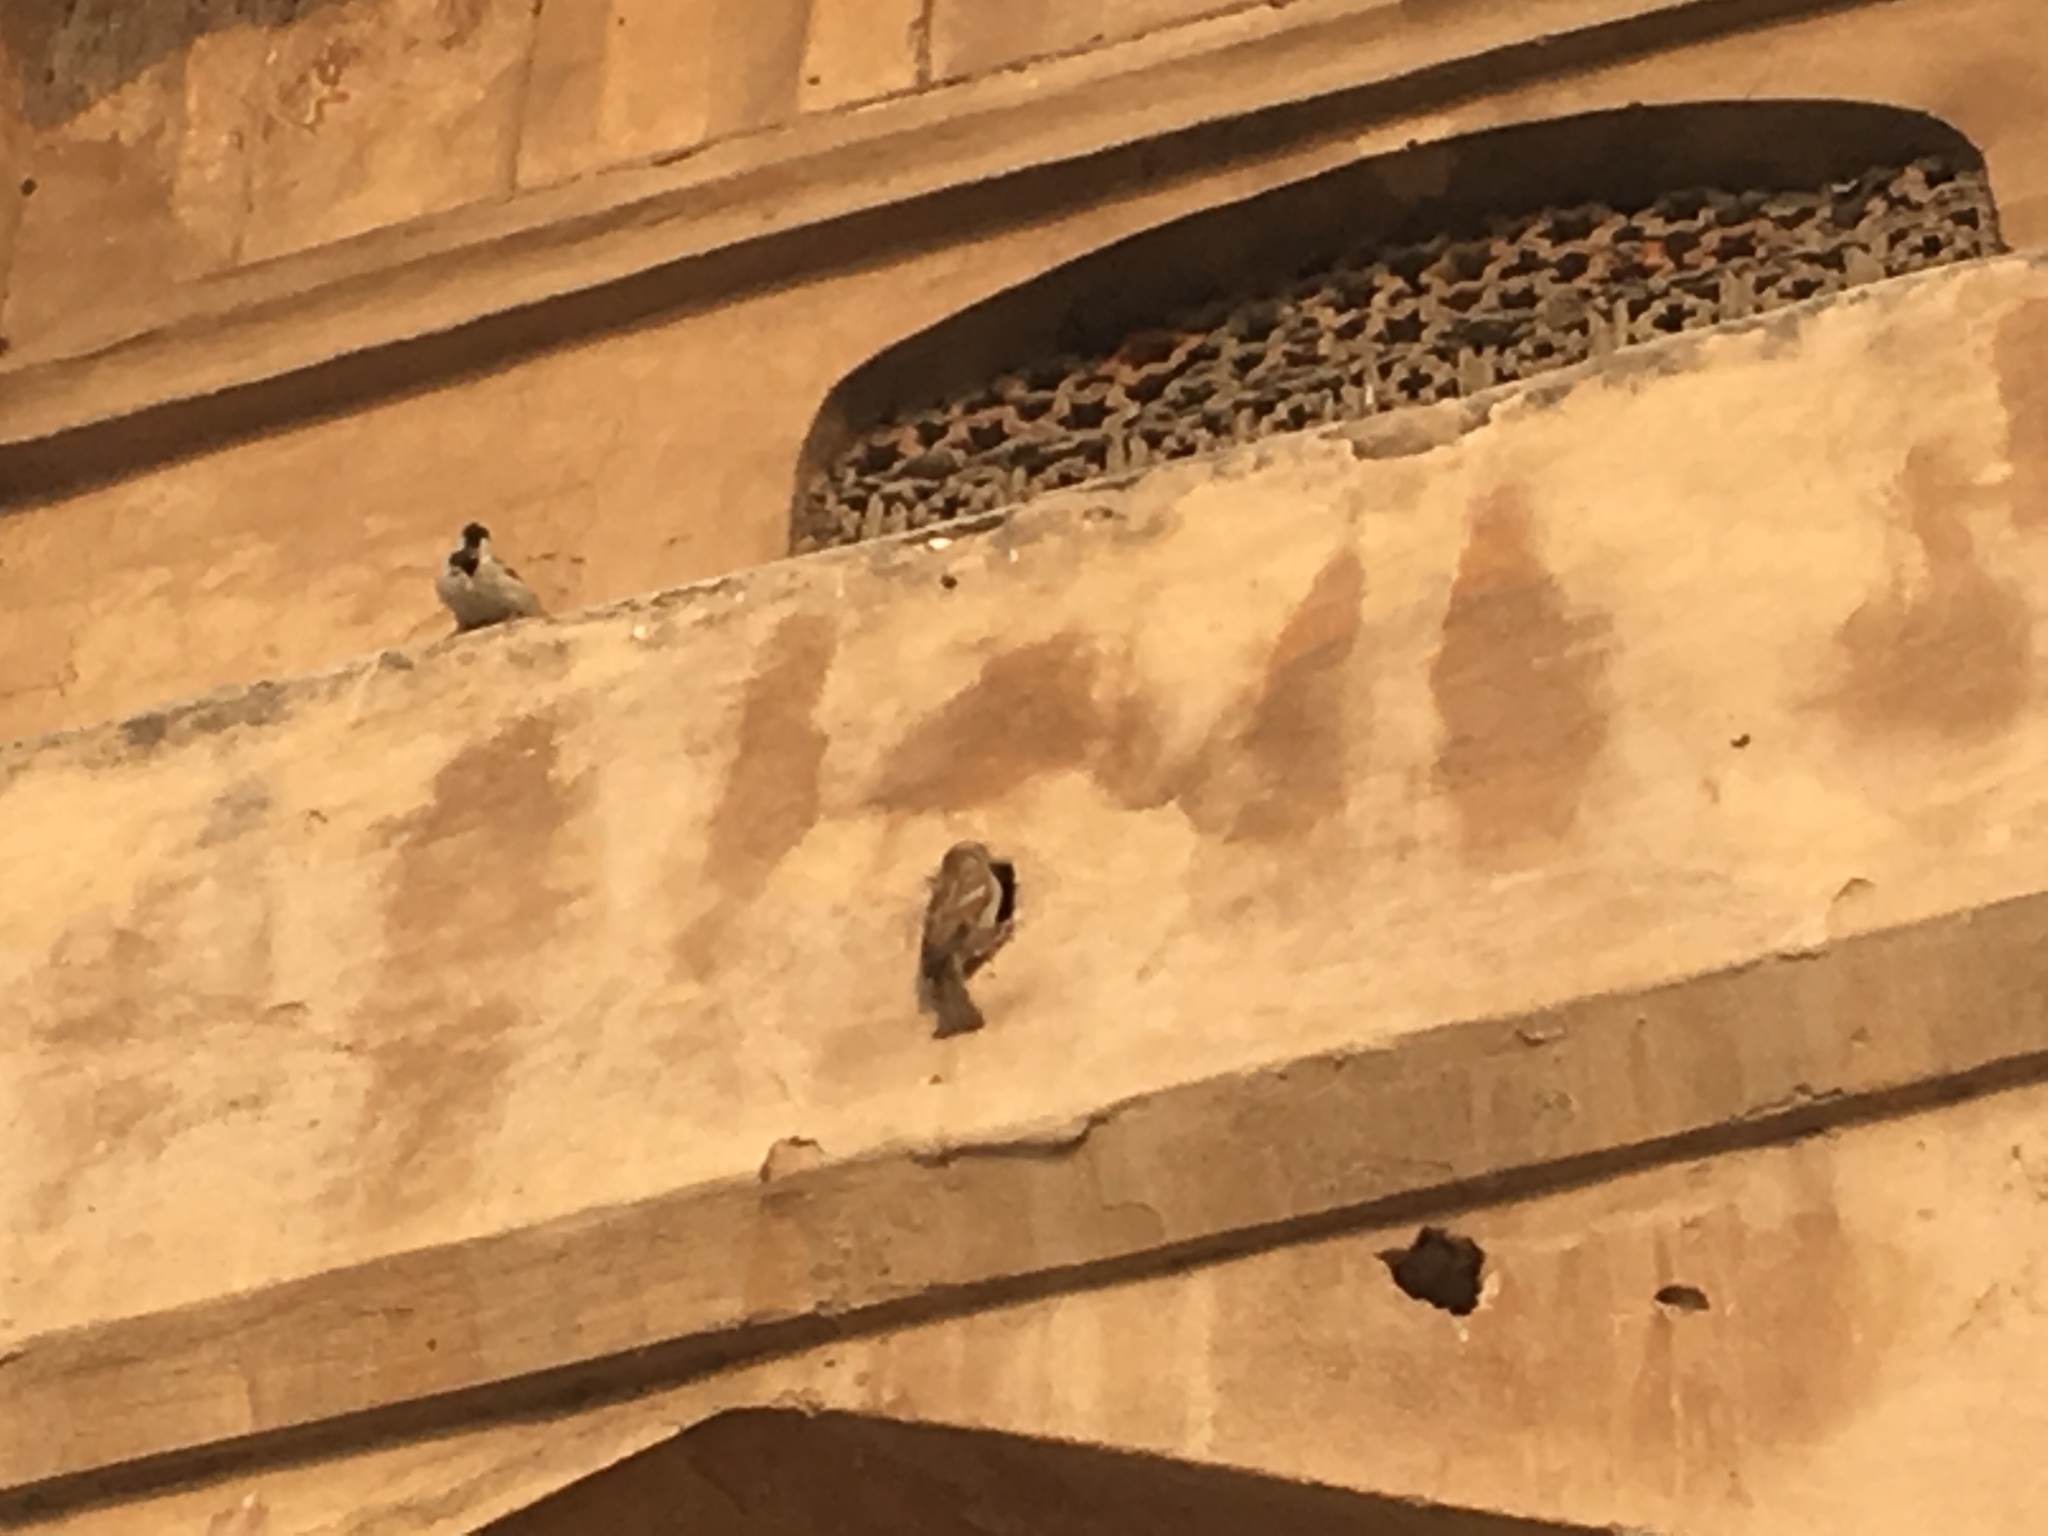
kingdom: Animalia
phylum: Chordata
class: Aves
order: Passeriformes
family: Passeridae
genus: Passer
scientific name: Passer domesticus
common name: House sparrow
